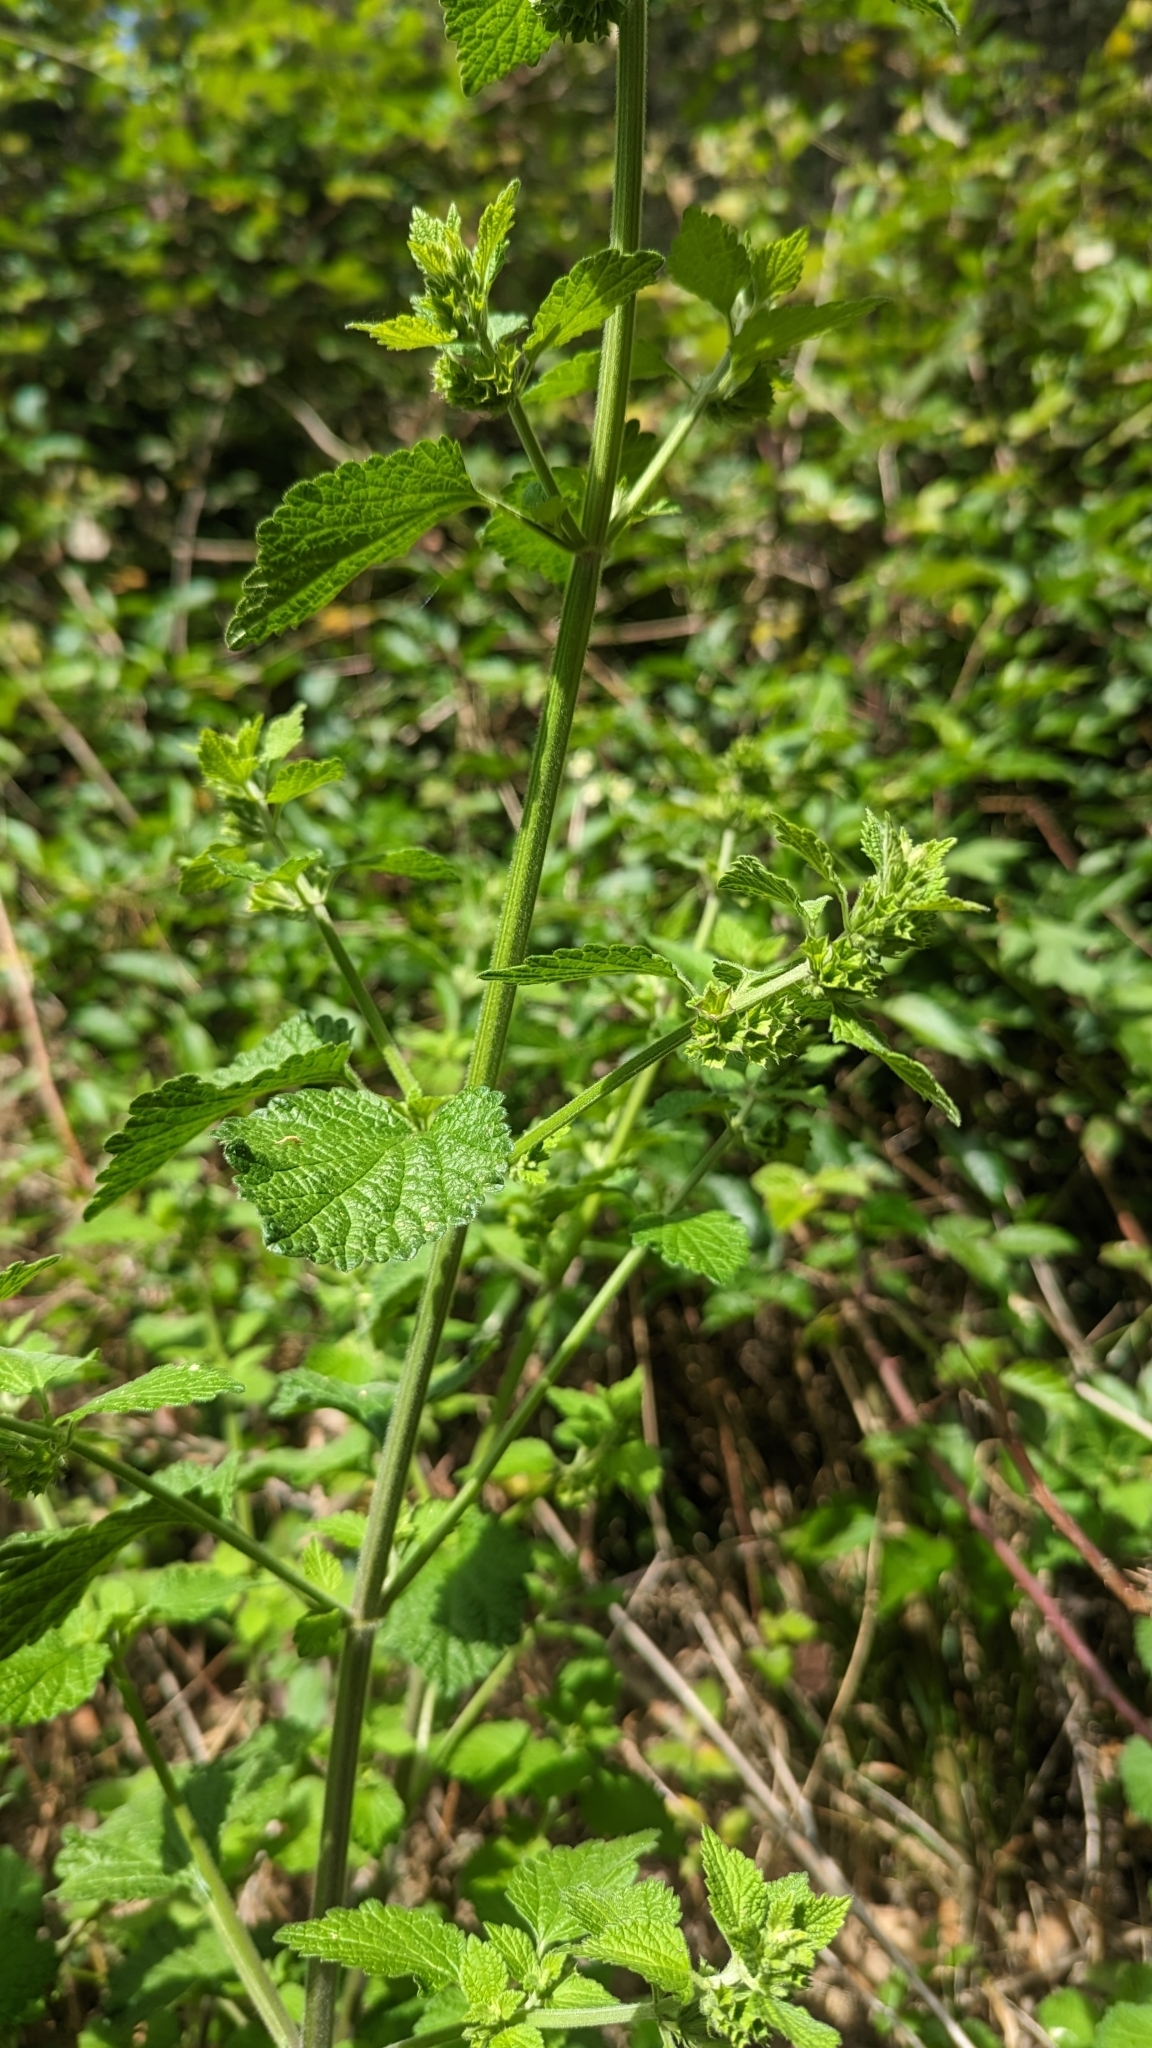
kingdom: Plantae
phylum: Tracheophyta
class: Magnoliopsida
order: Lamiales
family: Lamiaceae
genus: Ballota
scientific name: Ballota nigra
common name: Black horehound
